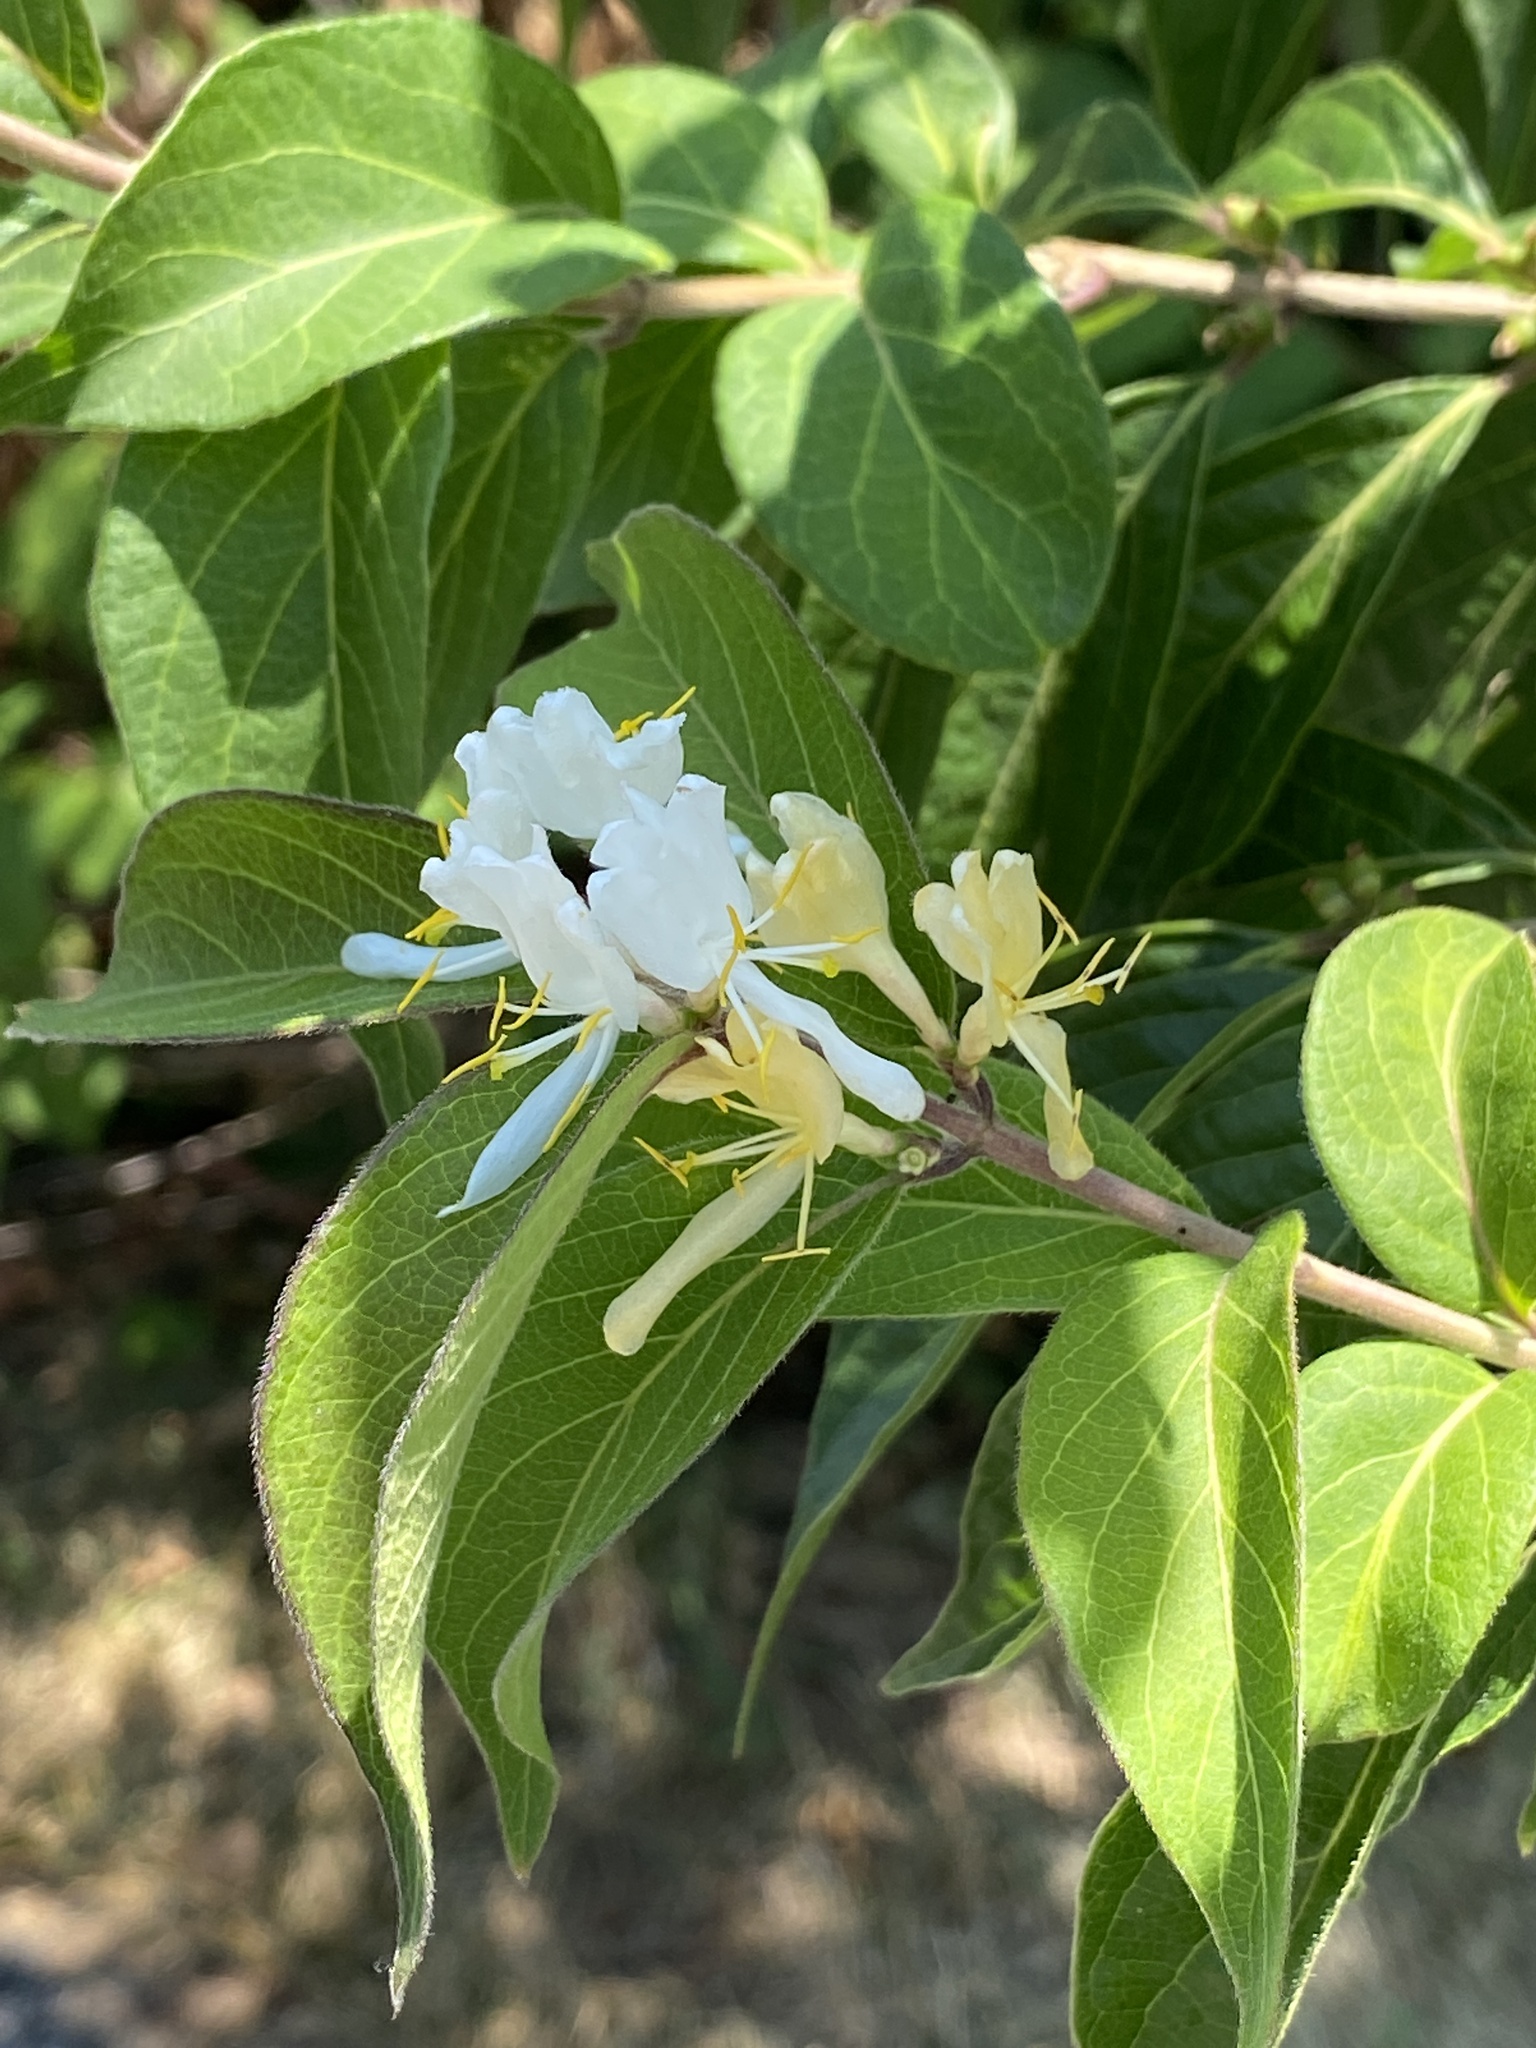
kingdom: Plantae
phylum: Tracheophyta
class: Magnoliopsida
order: Dipsacales
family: Caprifoliaceae
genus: Lonicera
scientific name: Lonicera maackii
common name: Amur honeysuckle
